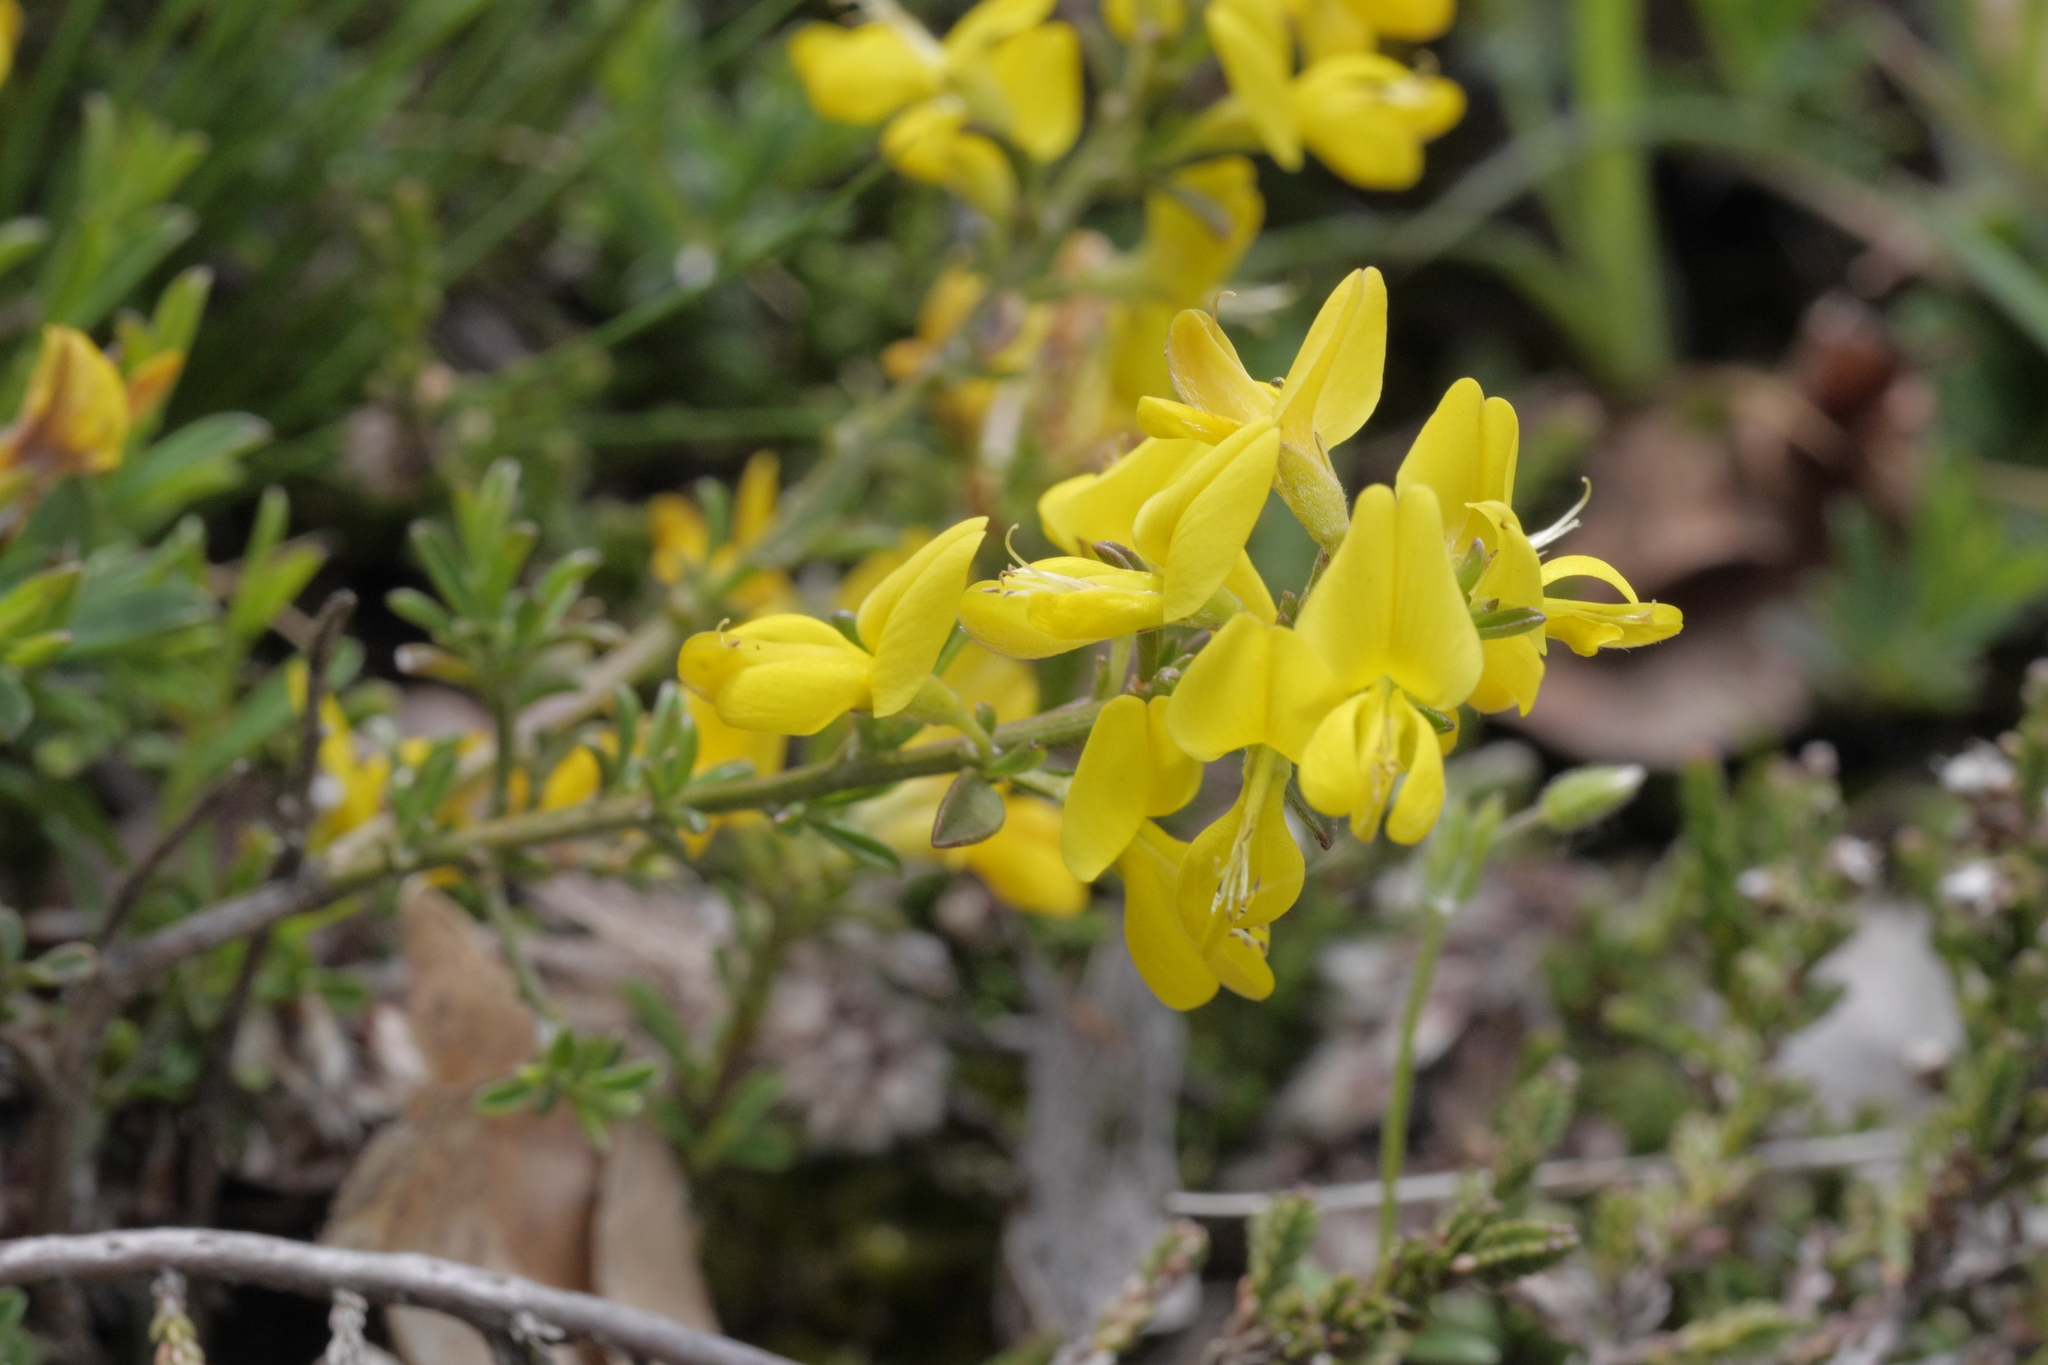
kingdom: Plantae
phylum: Tracheophyta
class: Magnoliopsida
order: Fabales
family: Fabaceae
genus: Genista
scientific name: Genista pilosa
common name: Hairy greenweed
